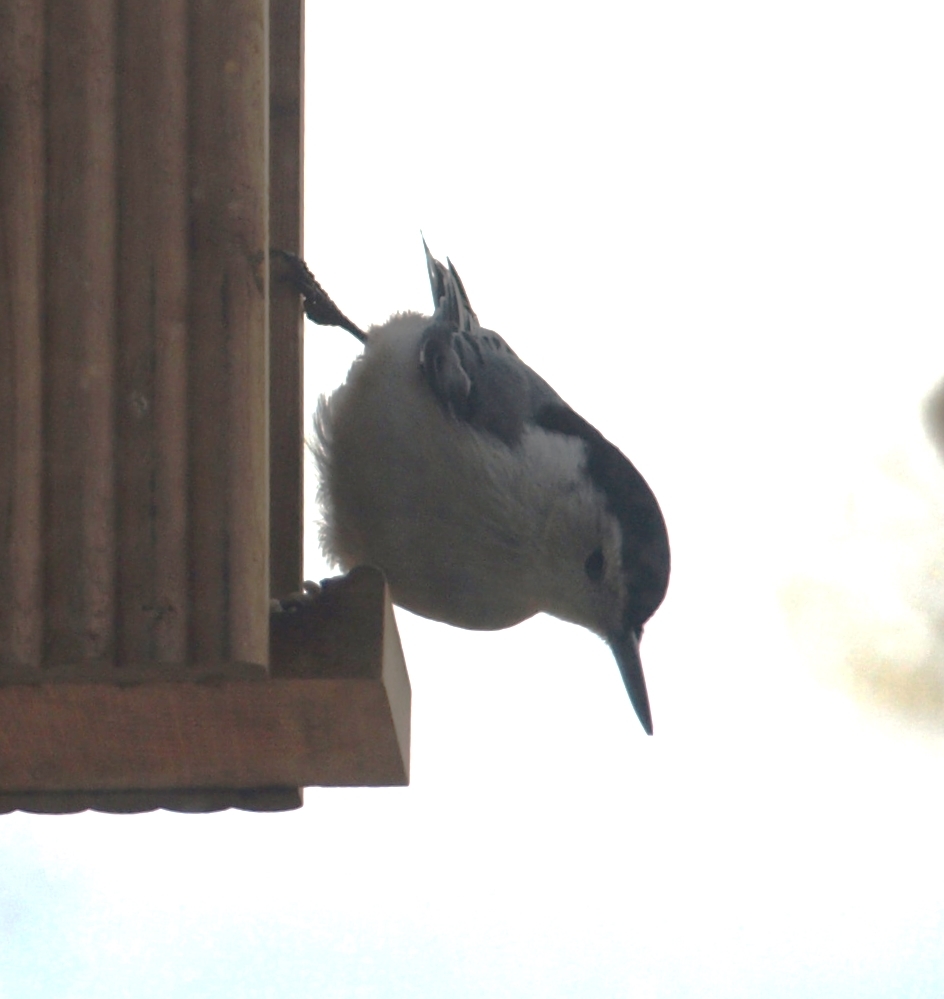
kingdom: Animalia
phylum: Chordata
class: Aves
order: Passeriformes
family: Sittidae
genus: Sitta
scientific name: Sitta carolinensis
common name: White-breasted nuthatch
